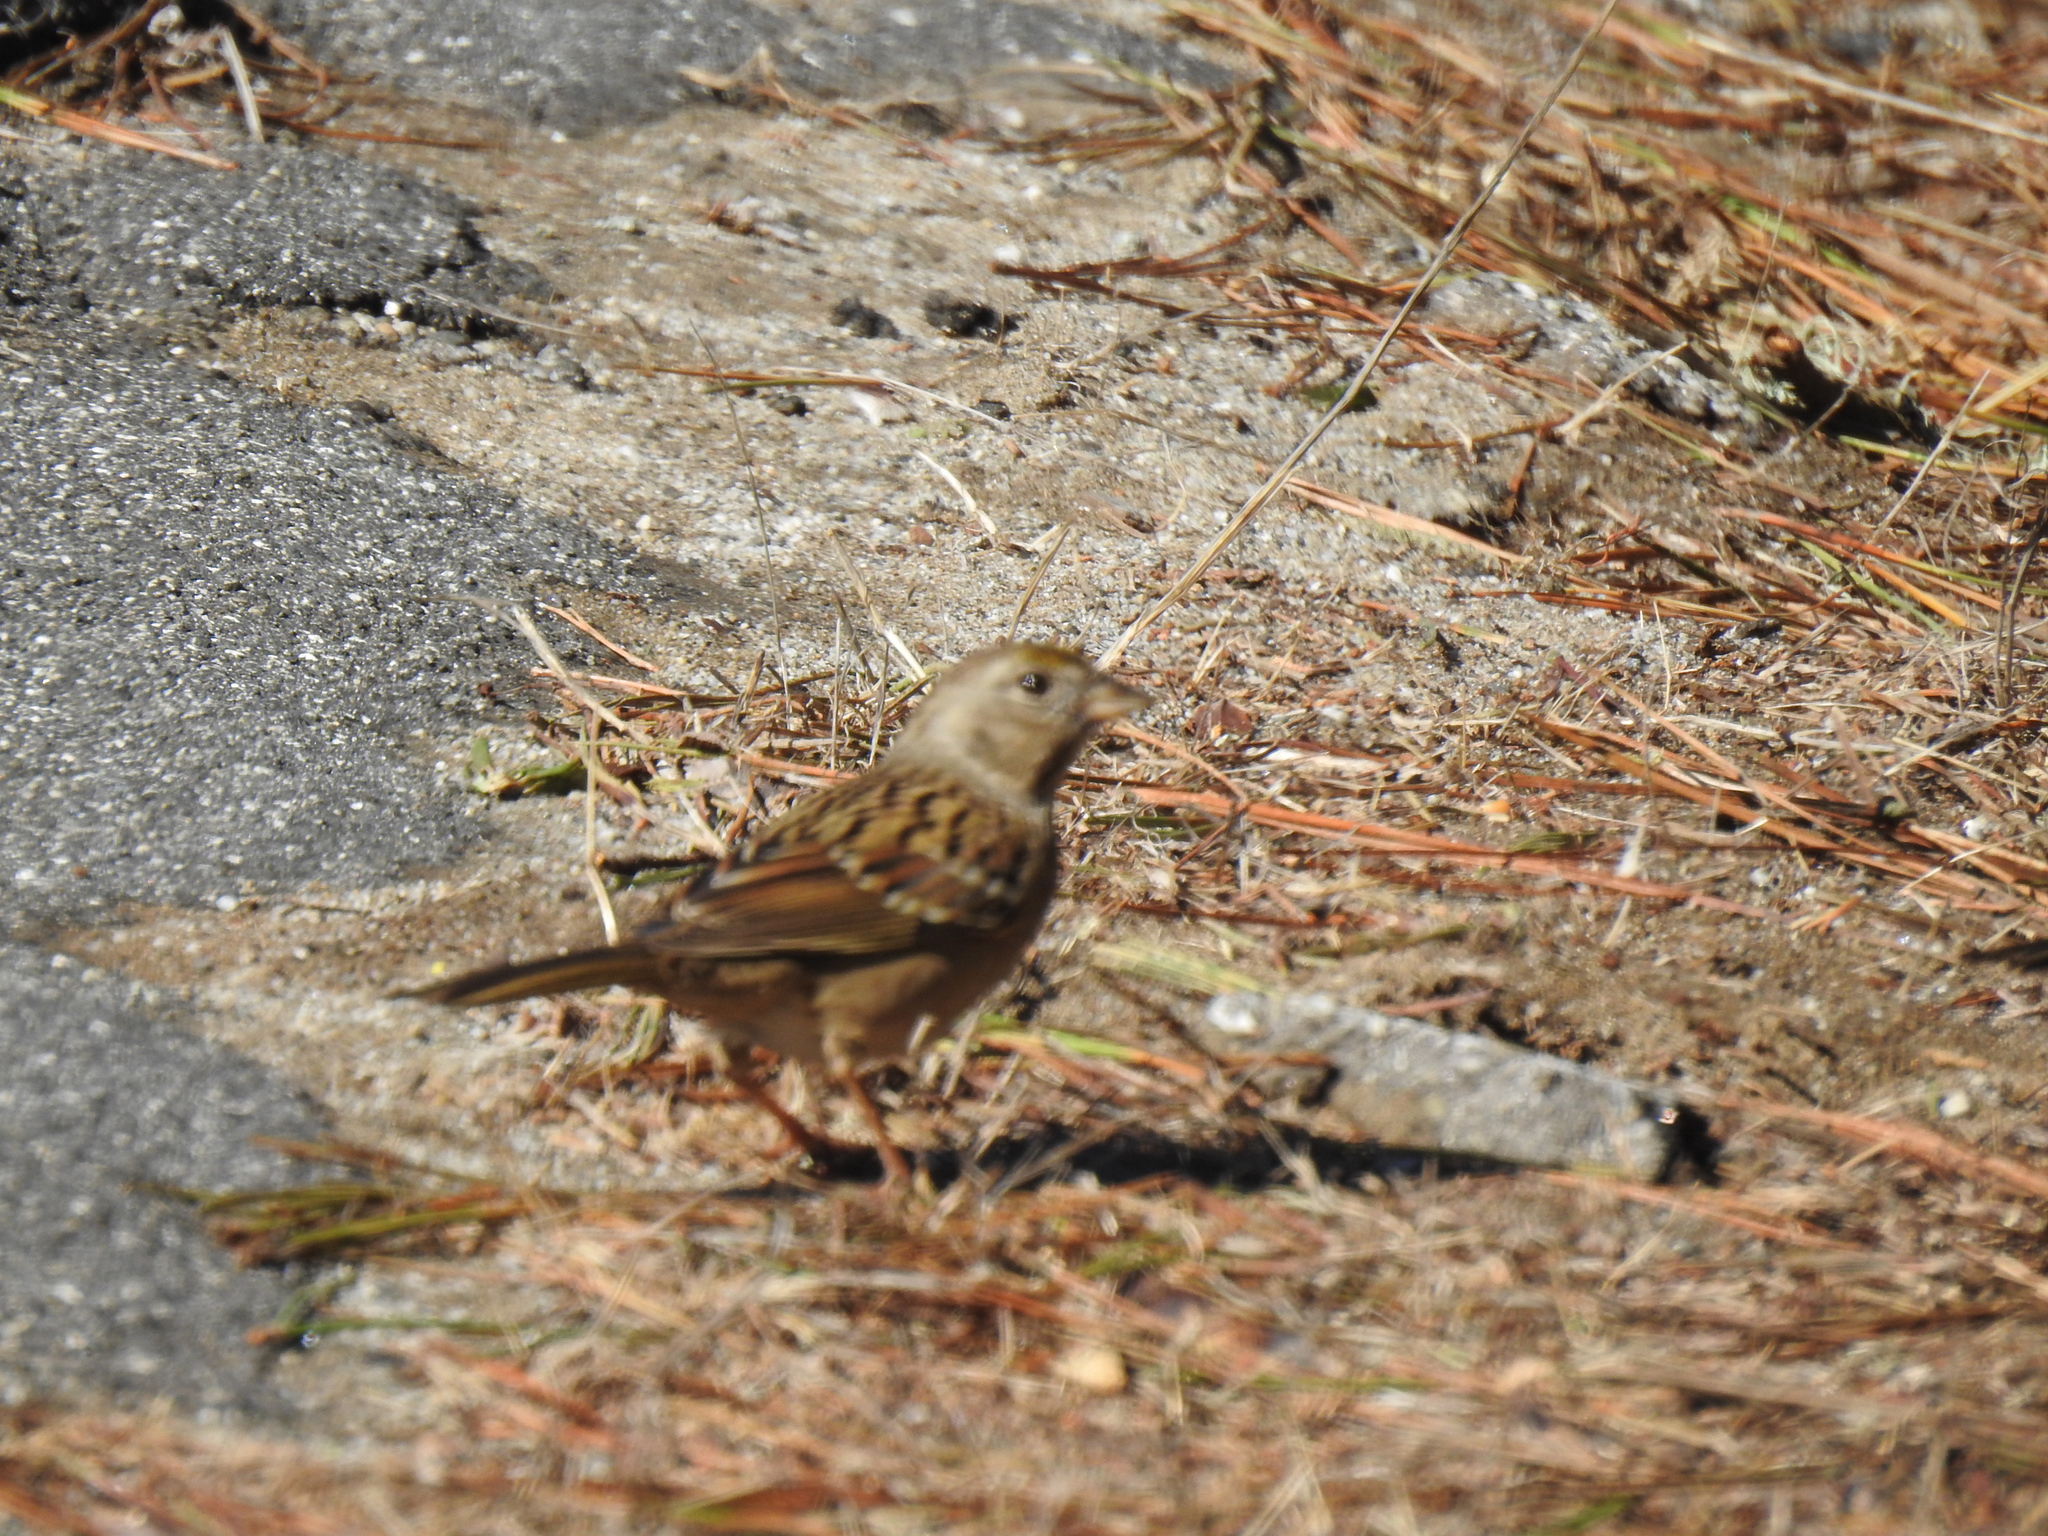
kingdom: Animalia
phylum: Chordata
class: Aves
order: Passeriformes
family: Passerellidae
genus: Zonotrichia
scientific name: Zonotrichia atricapilla
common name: Golden-crowned sparrow
